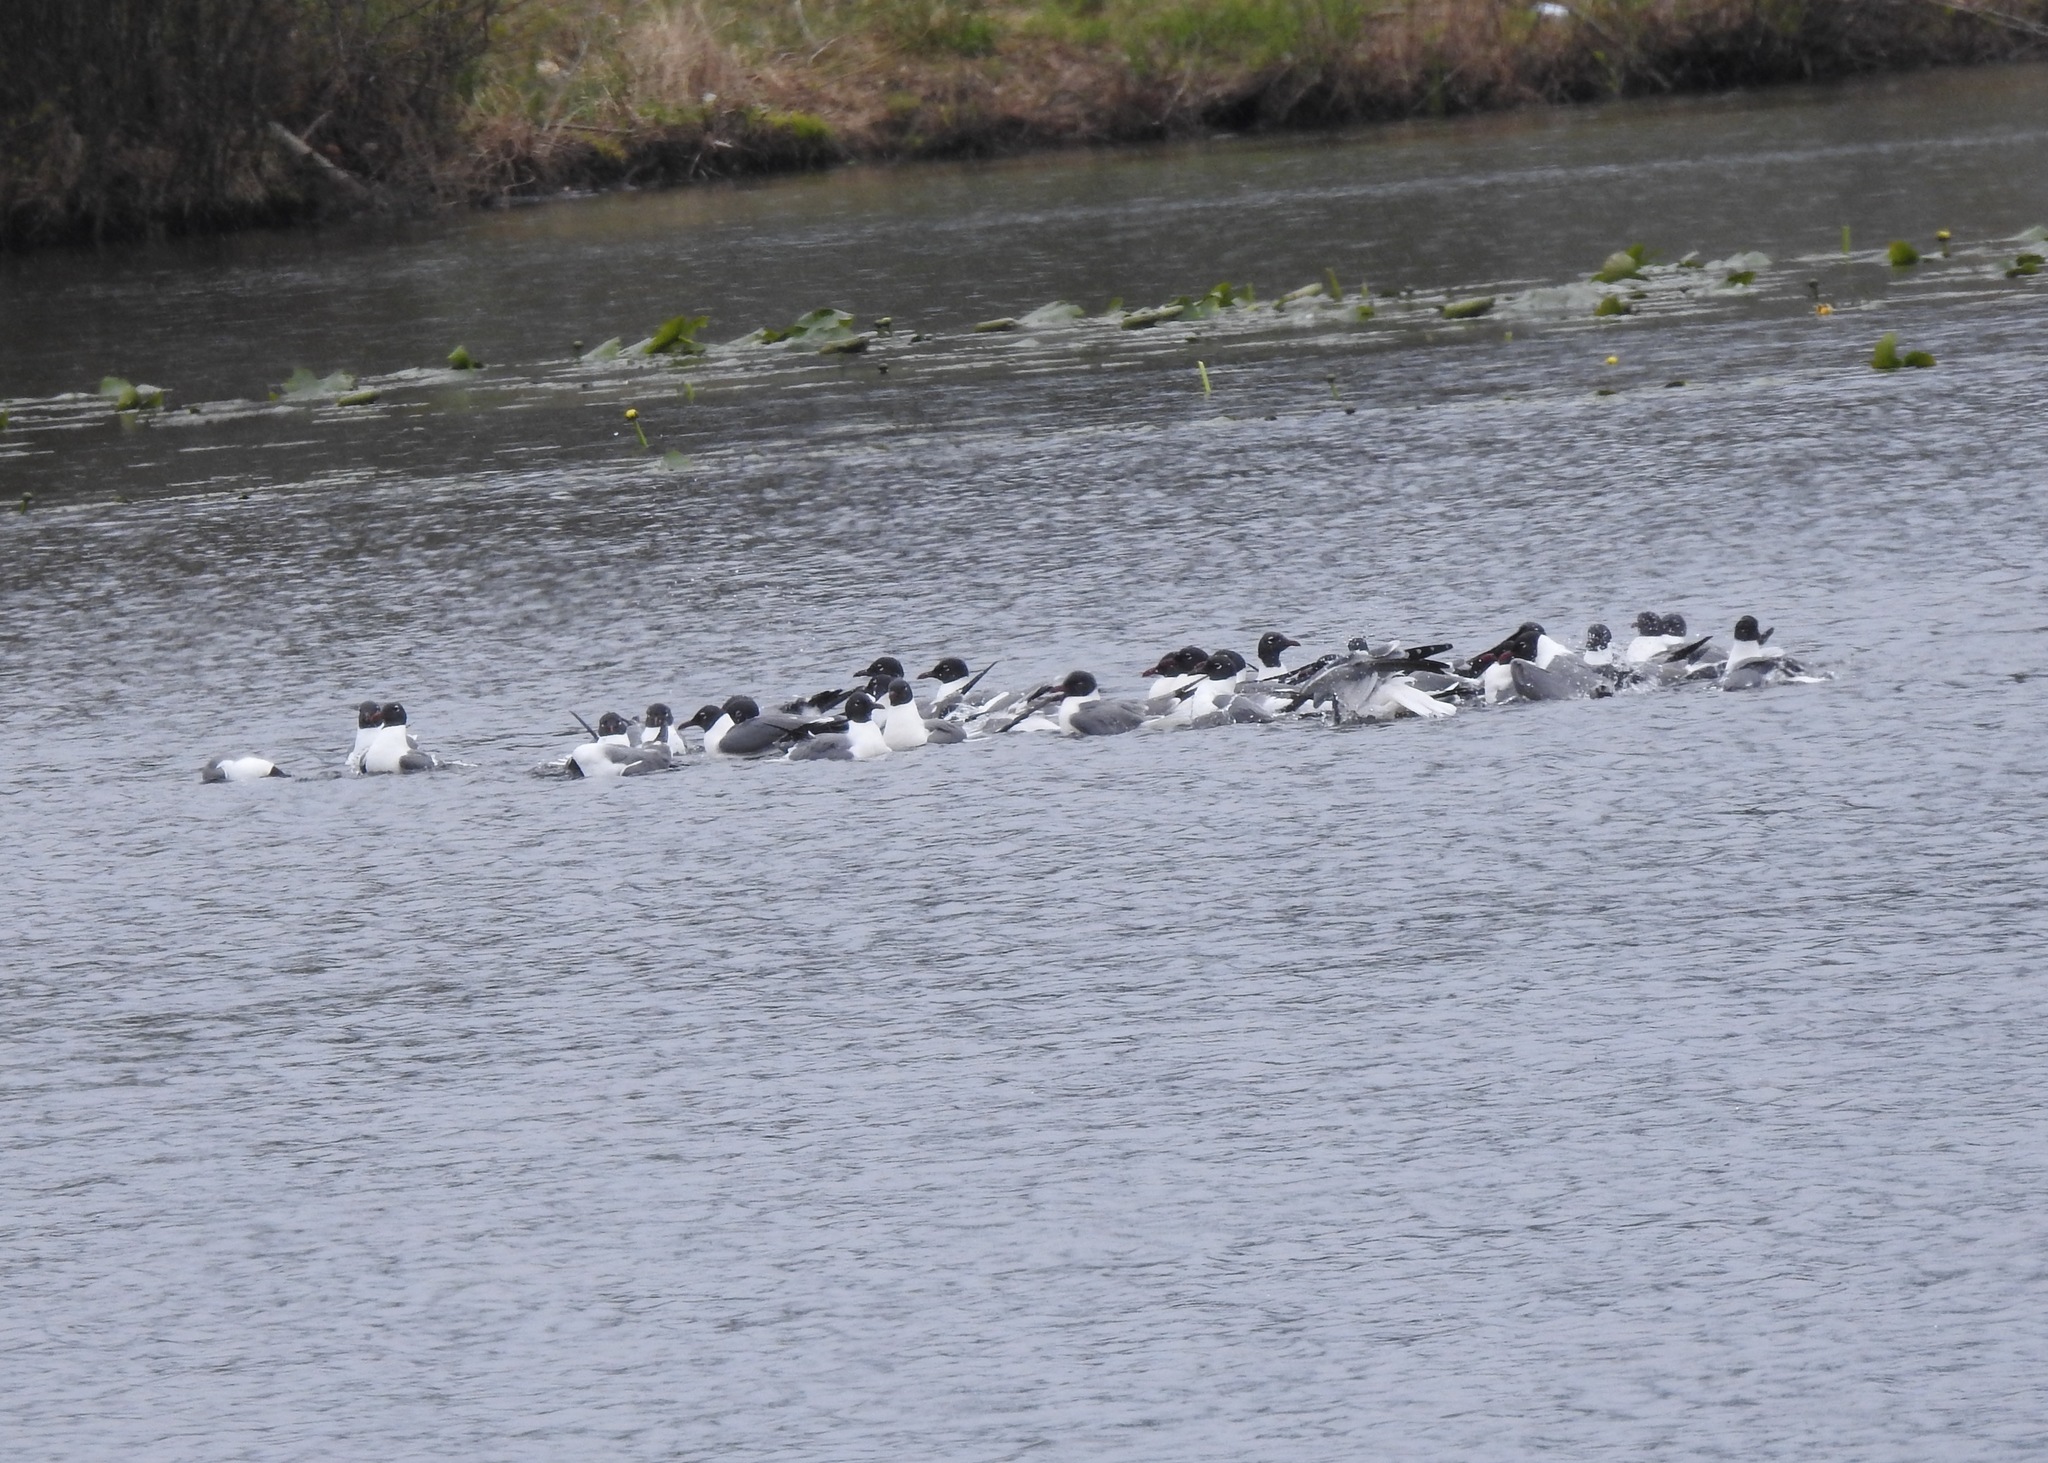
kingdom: Animalia
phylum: Chordata
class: Aves
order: Charadriiformes
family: Laridae
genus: Leucophaeus
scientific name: Leucophaeus atricilla
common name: Laughing gull
